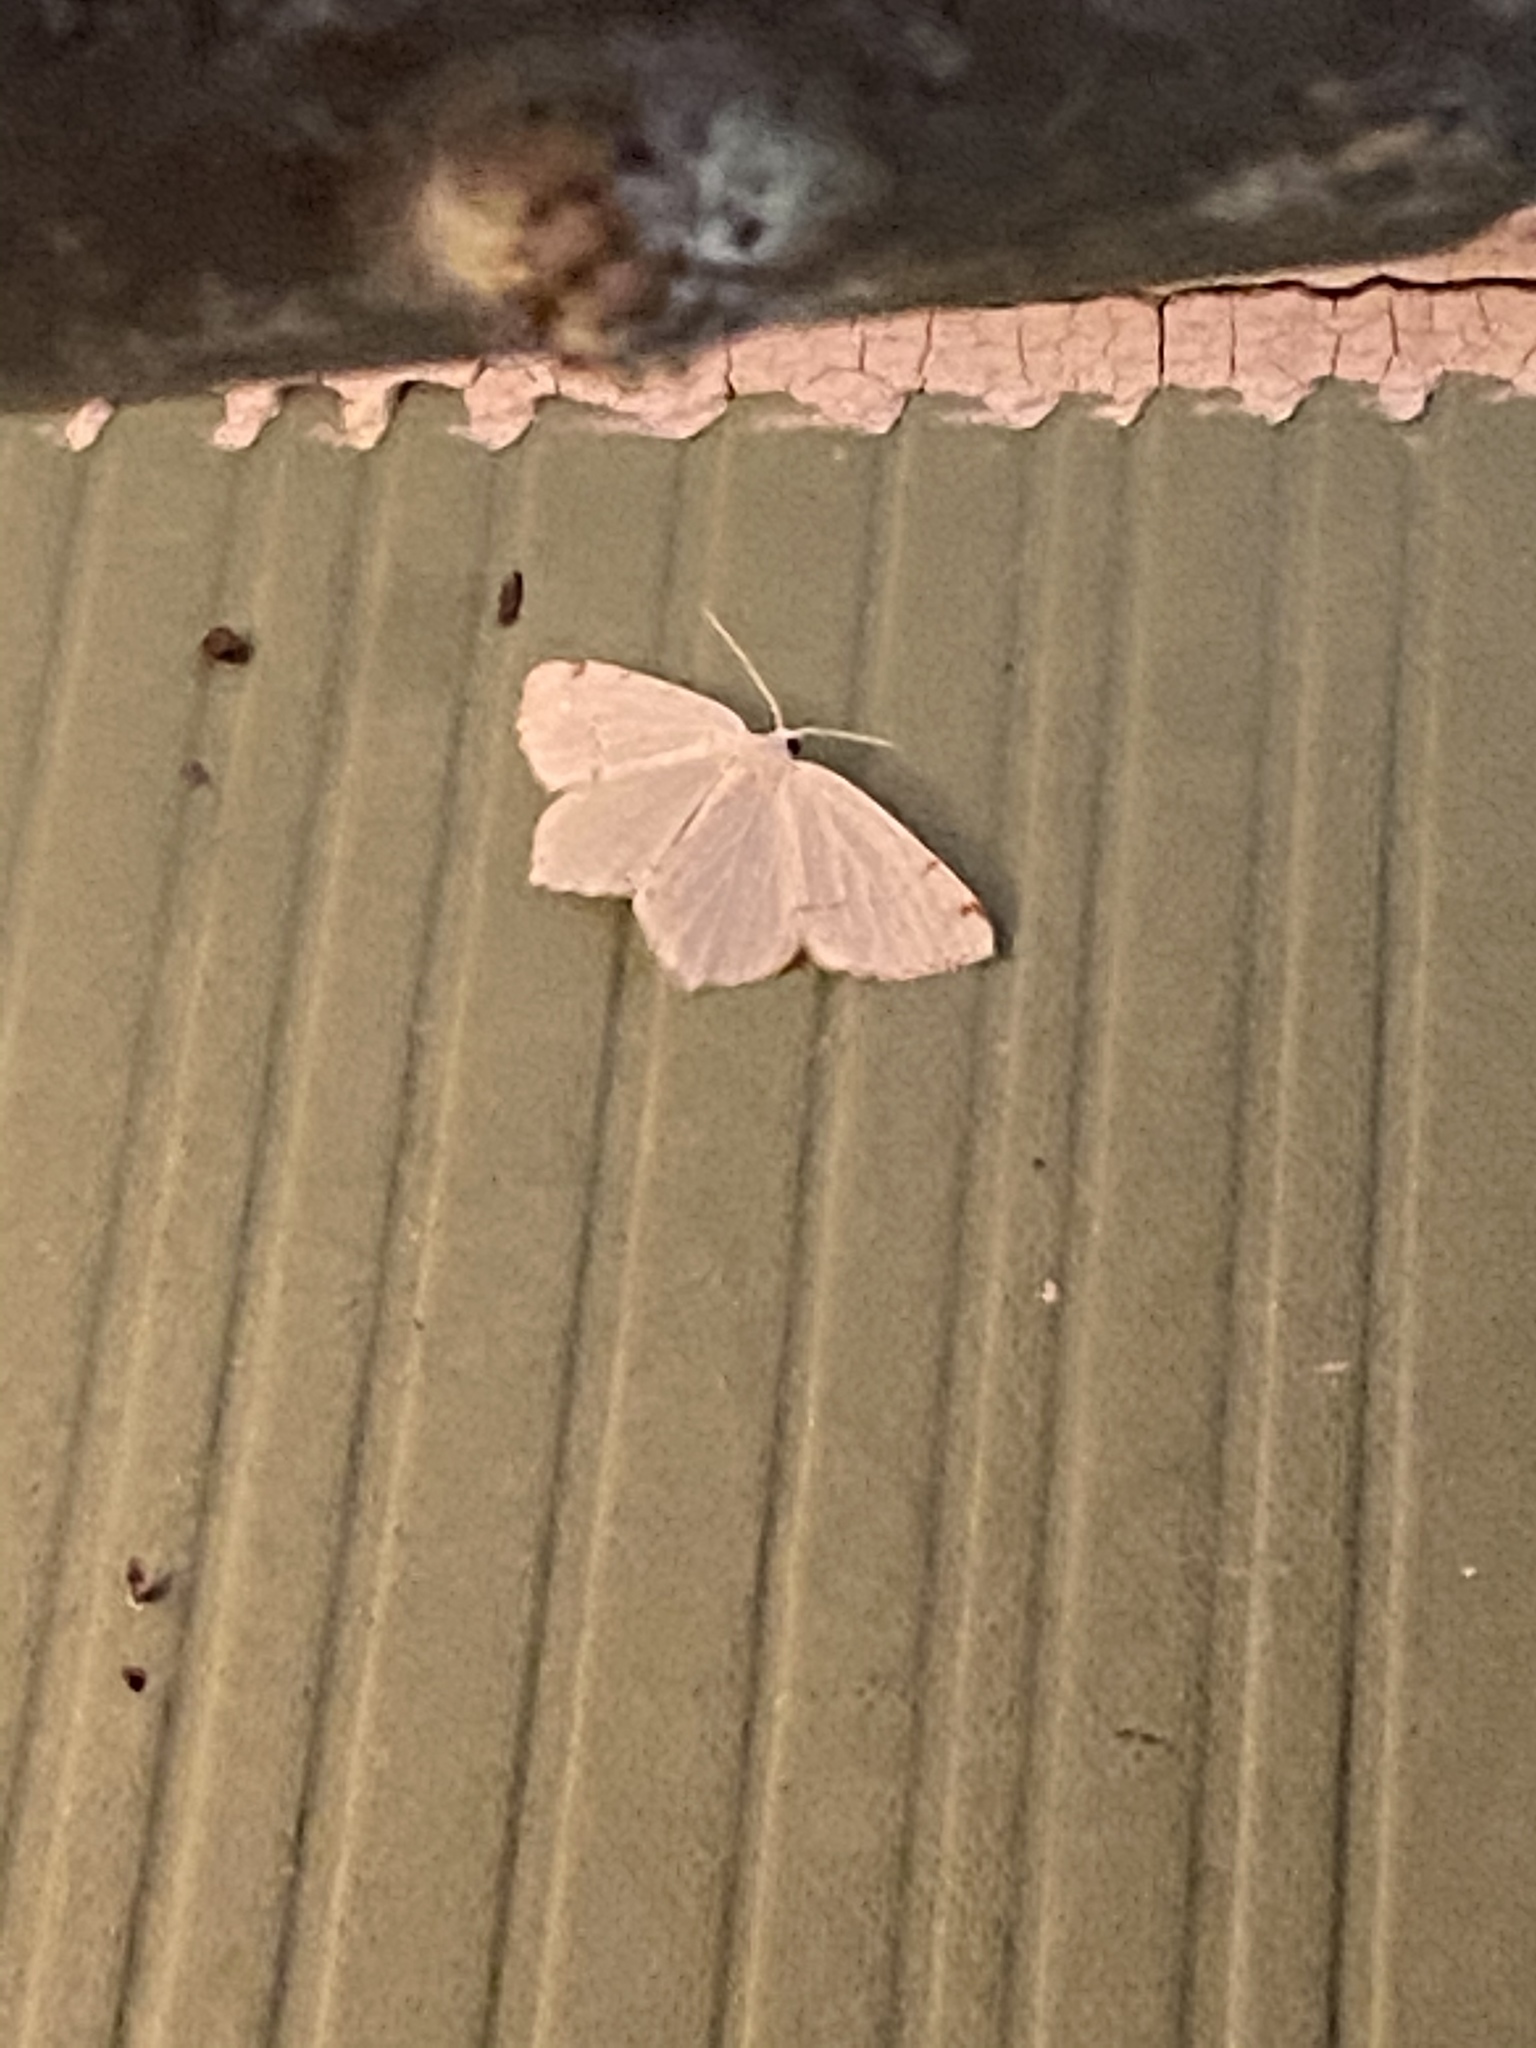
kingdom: Animalia
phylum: Arthropoda
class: Insecta
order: Lepidoptera
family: Geometridae
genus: Macaria
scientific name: Macaria pustularia
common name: Lesser maple spanworm moth
